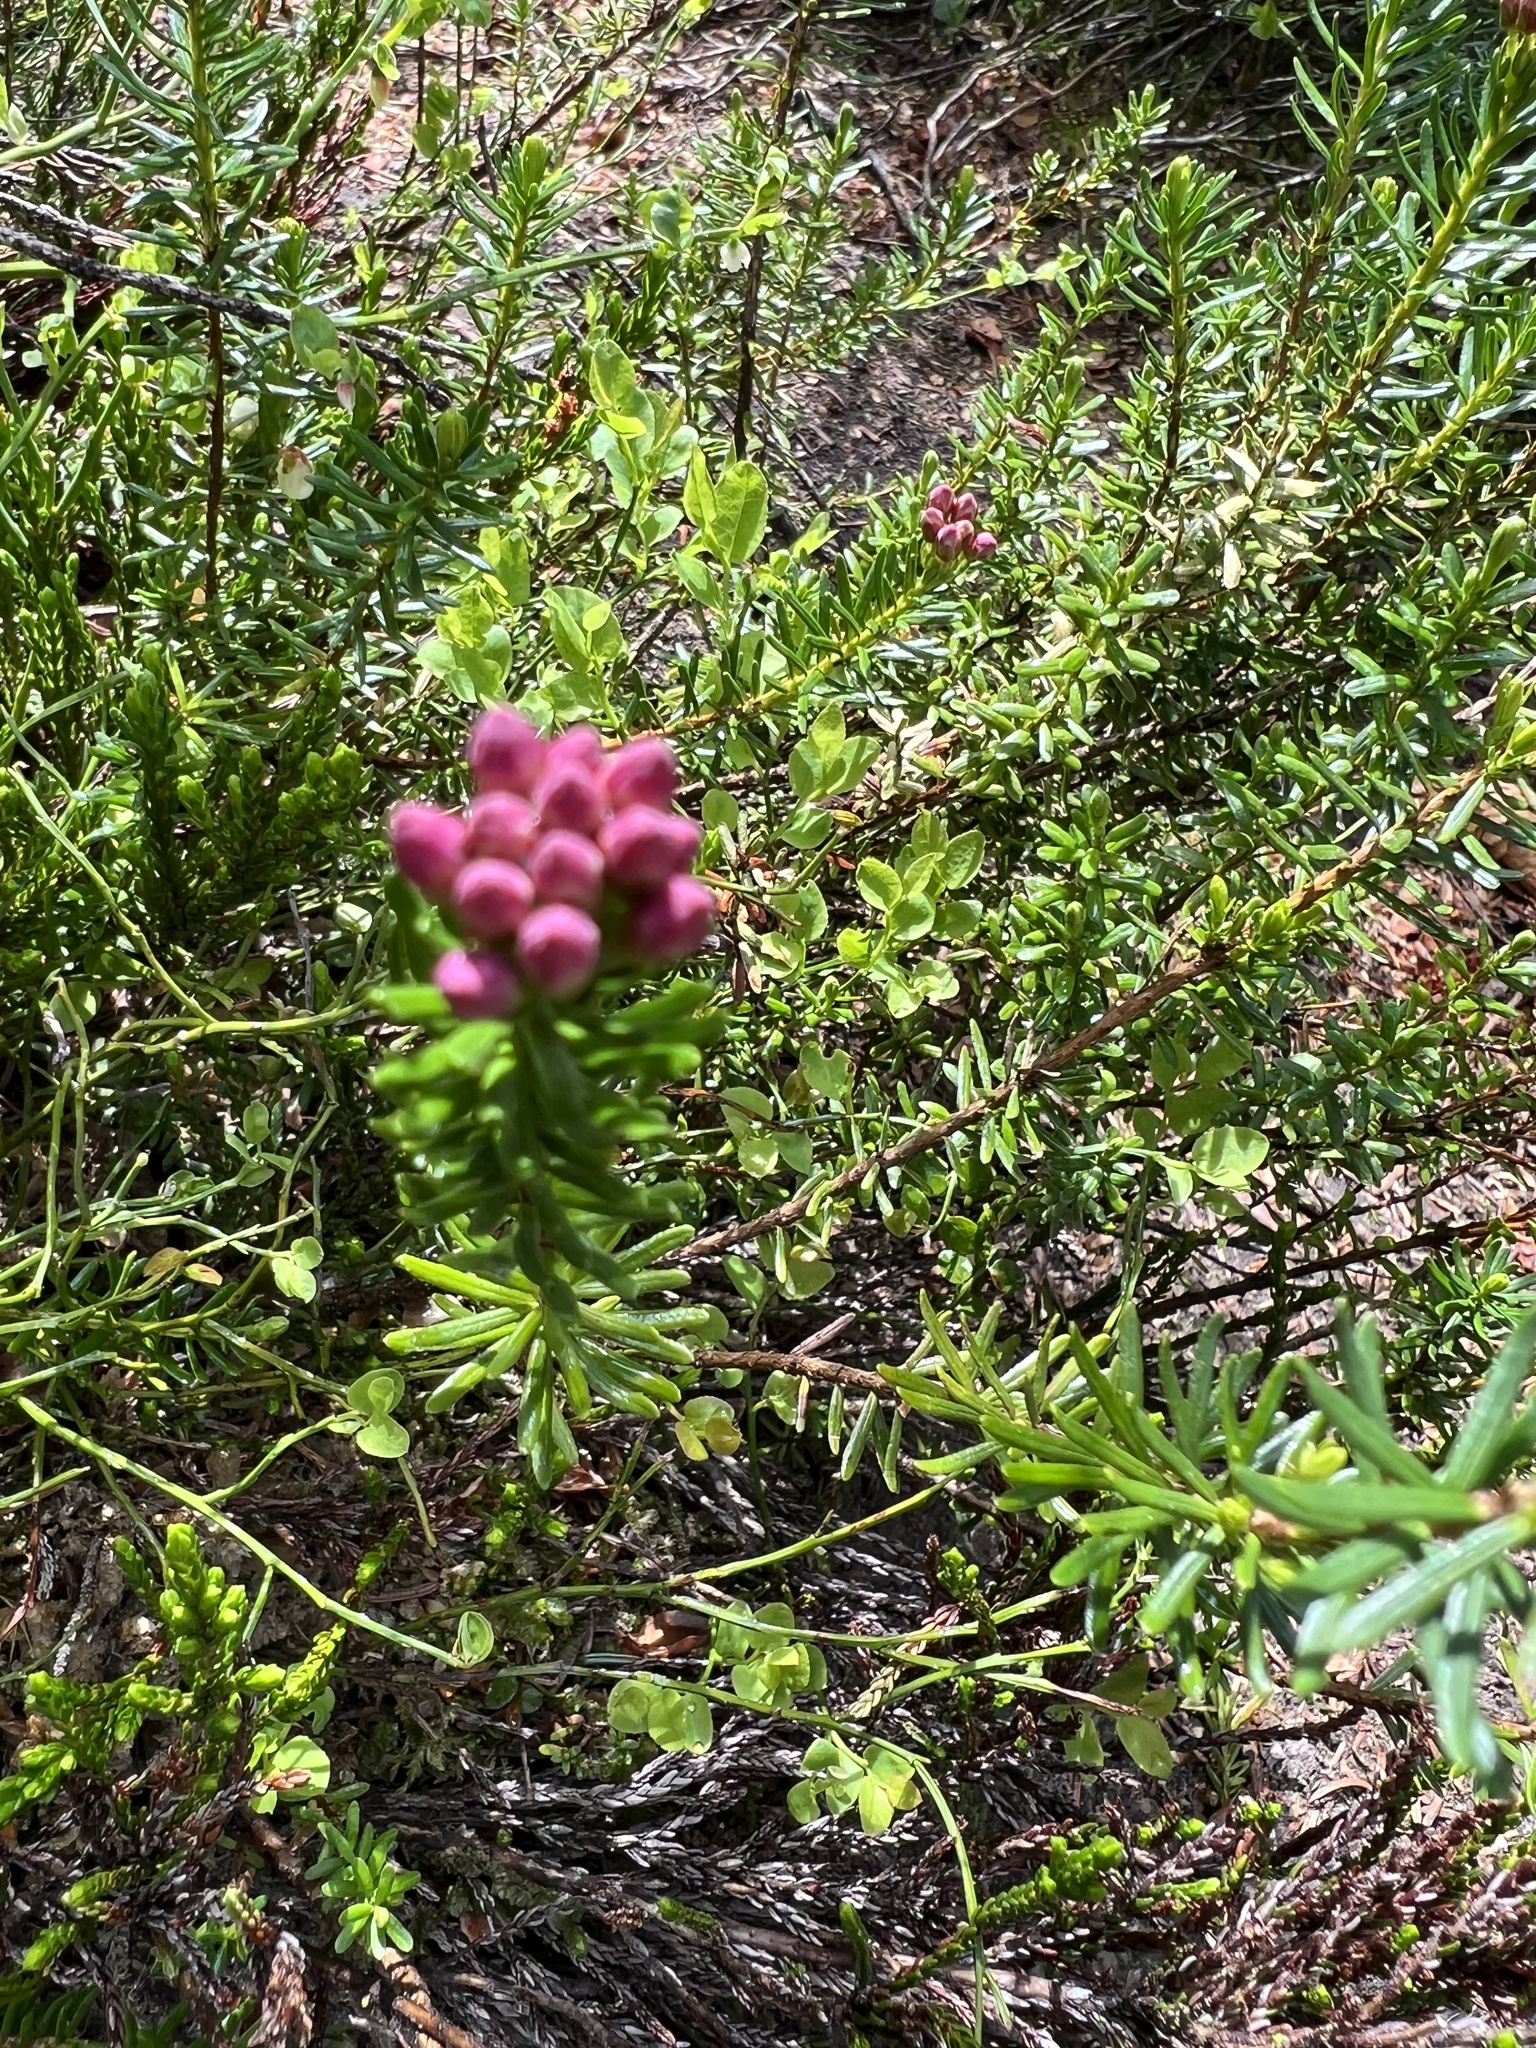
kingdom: Plantae
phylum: Tracheophyta
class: Magnoliopsida
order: Ericales
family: Ericaceae
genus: Phyllodoce
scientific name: Phyllodoce empetriformis
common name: Pink mountain heather
